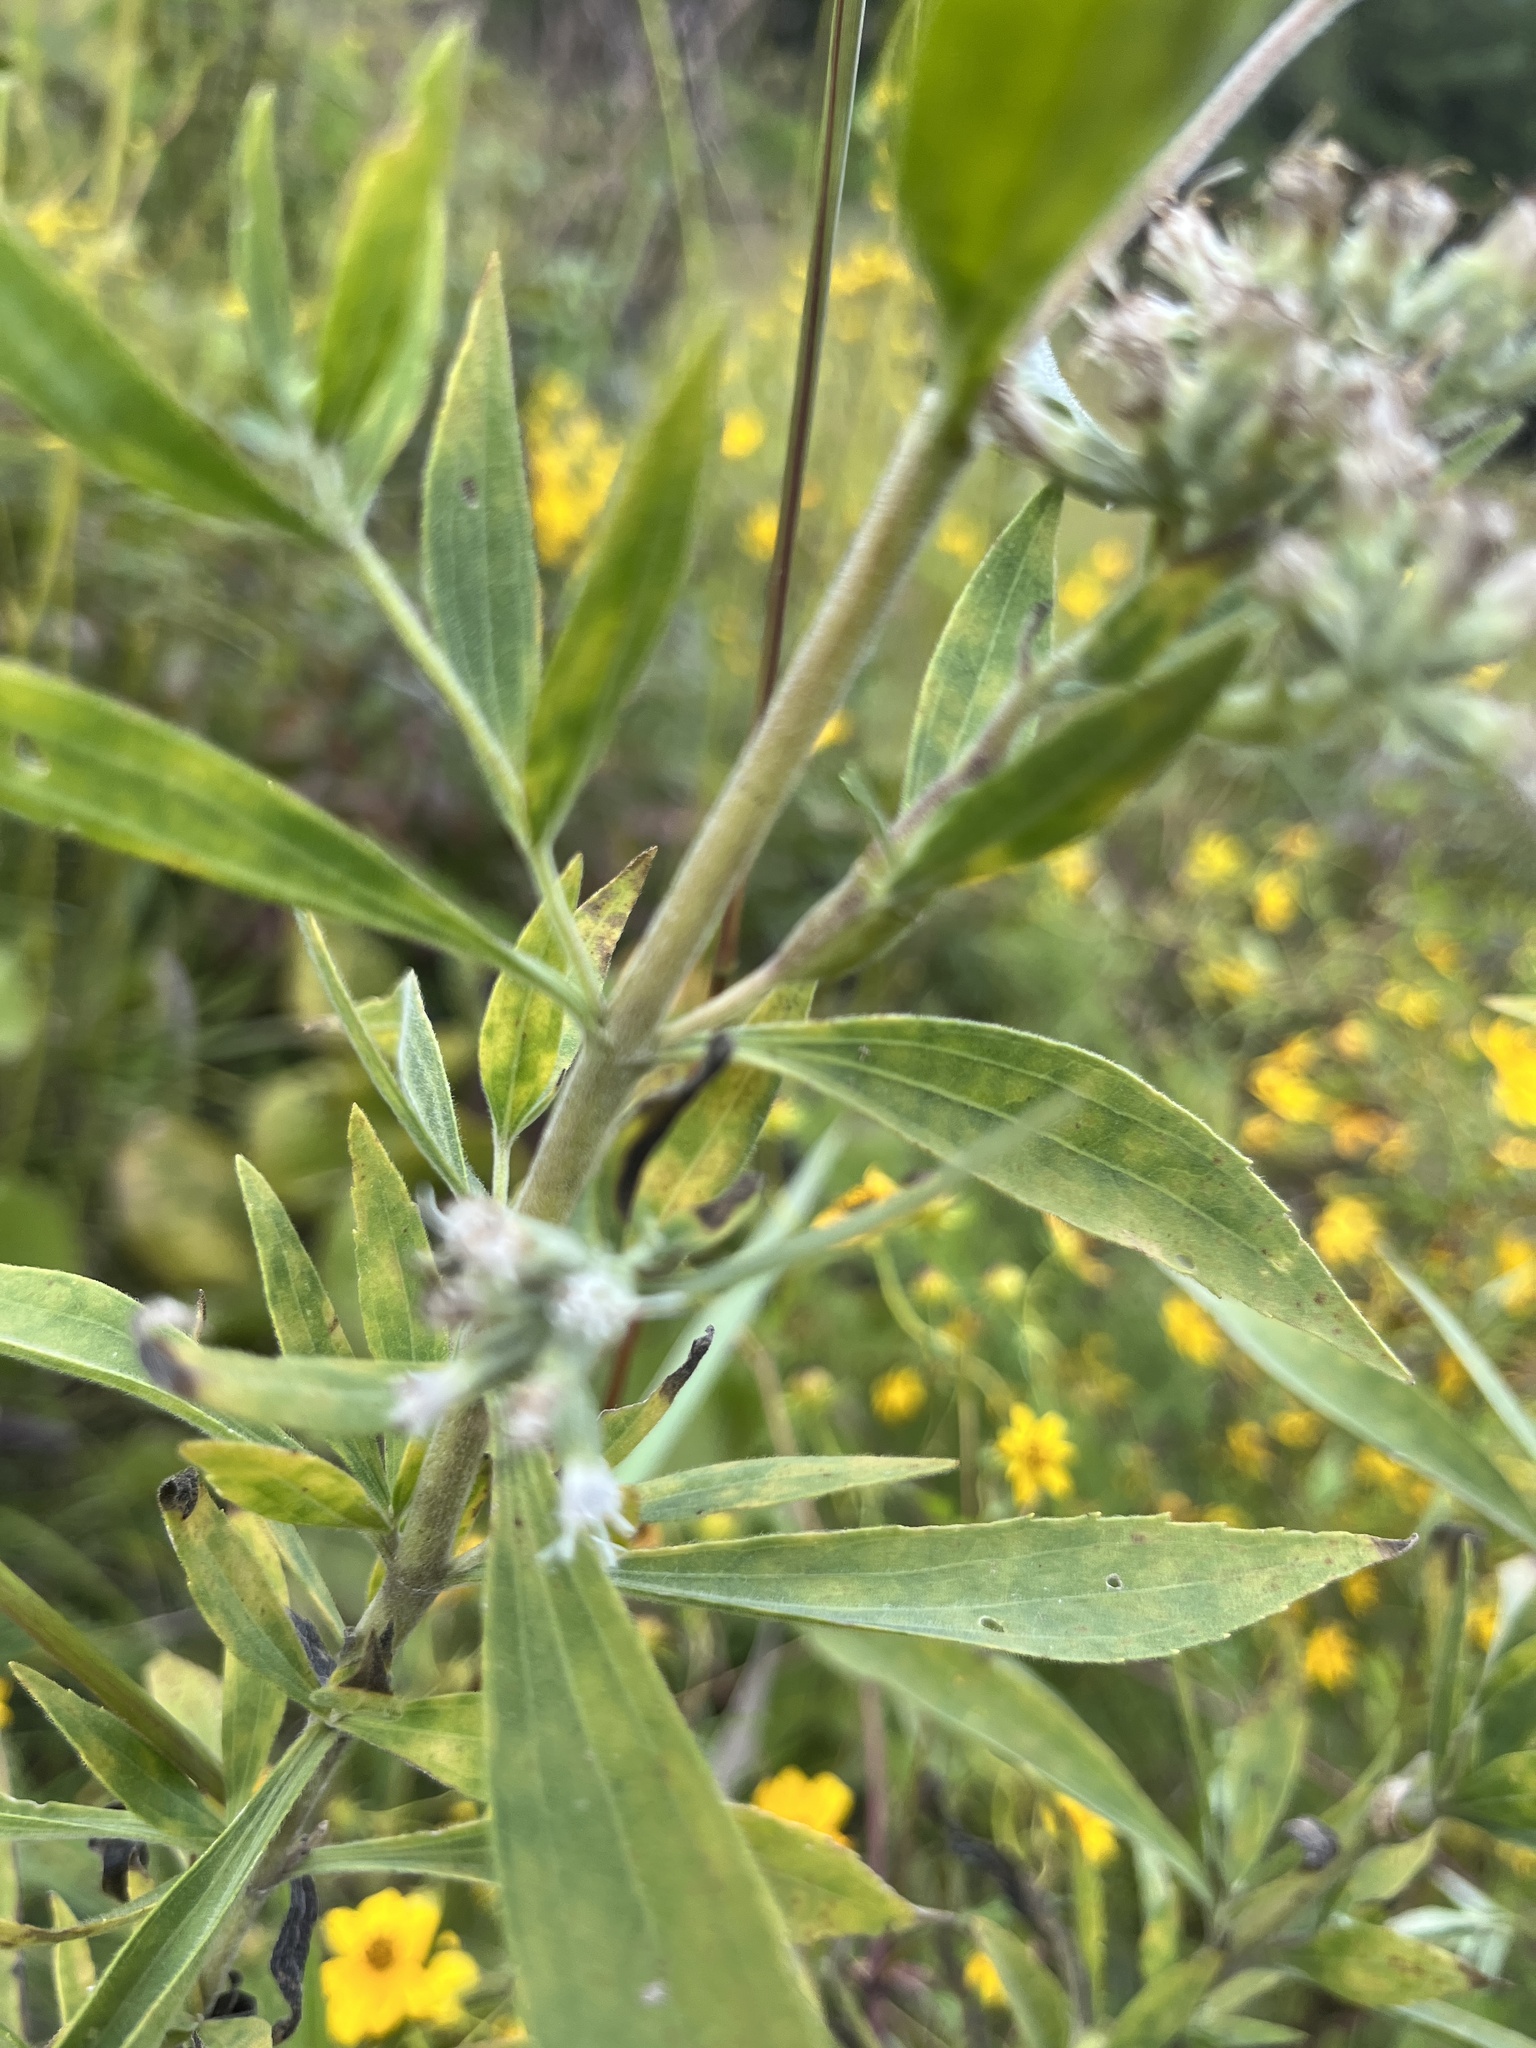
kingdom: Plantae
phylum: Tracheophyta
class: Magnoliopsida
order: Asterales
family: Asteraceae
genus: Eupatorium
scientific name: Eupatorium altissimum
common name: Tall thoroughwort
